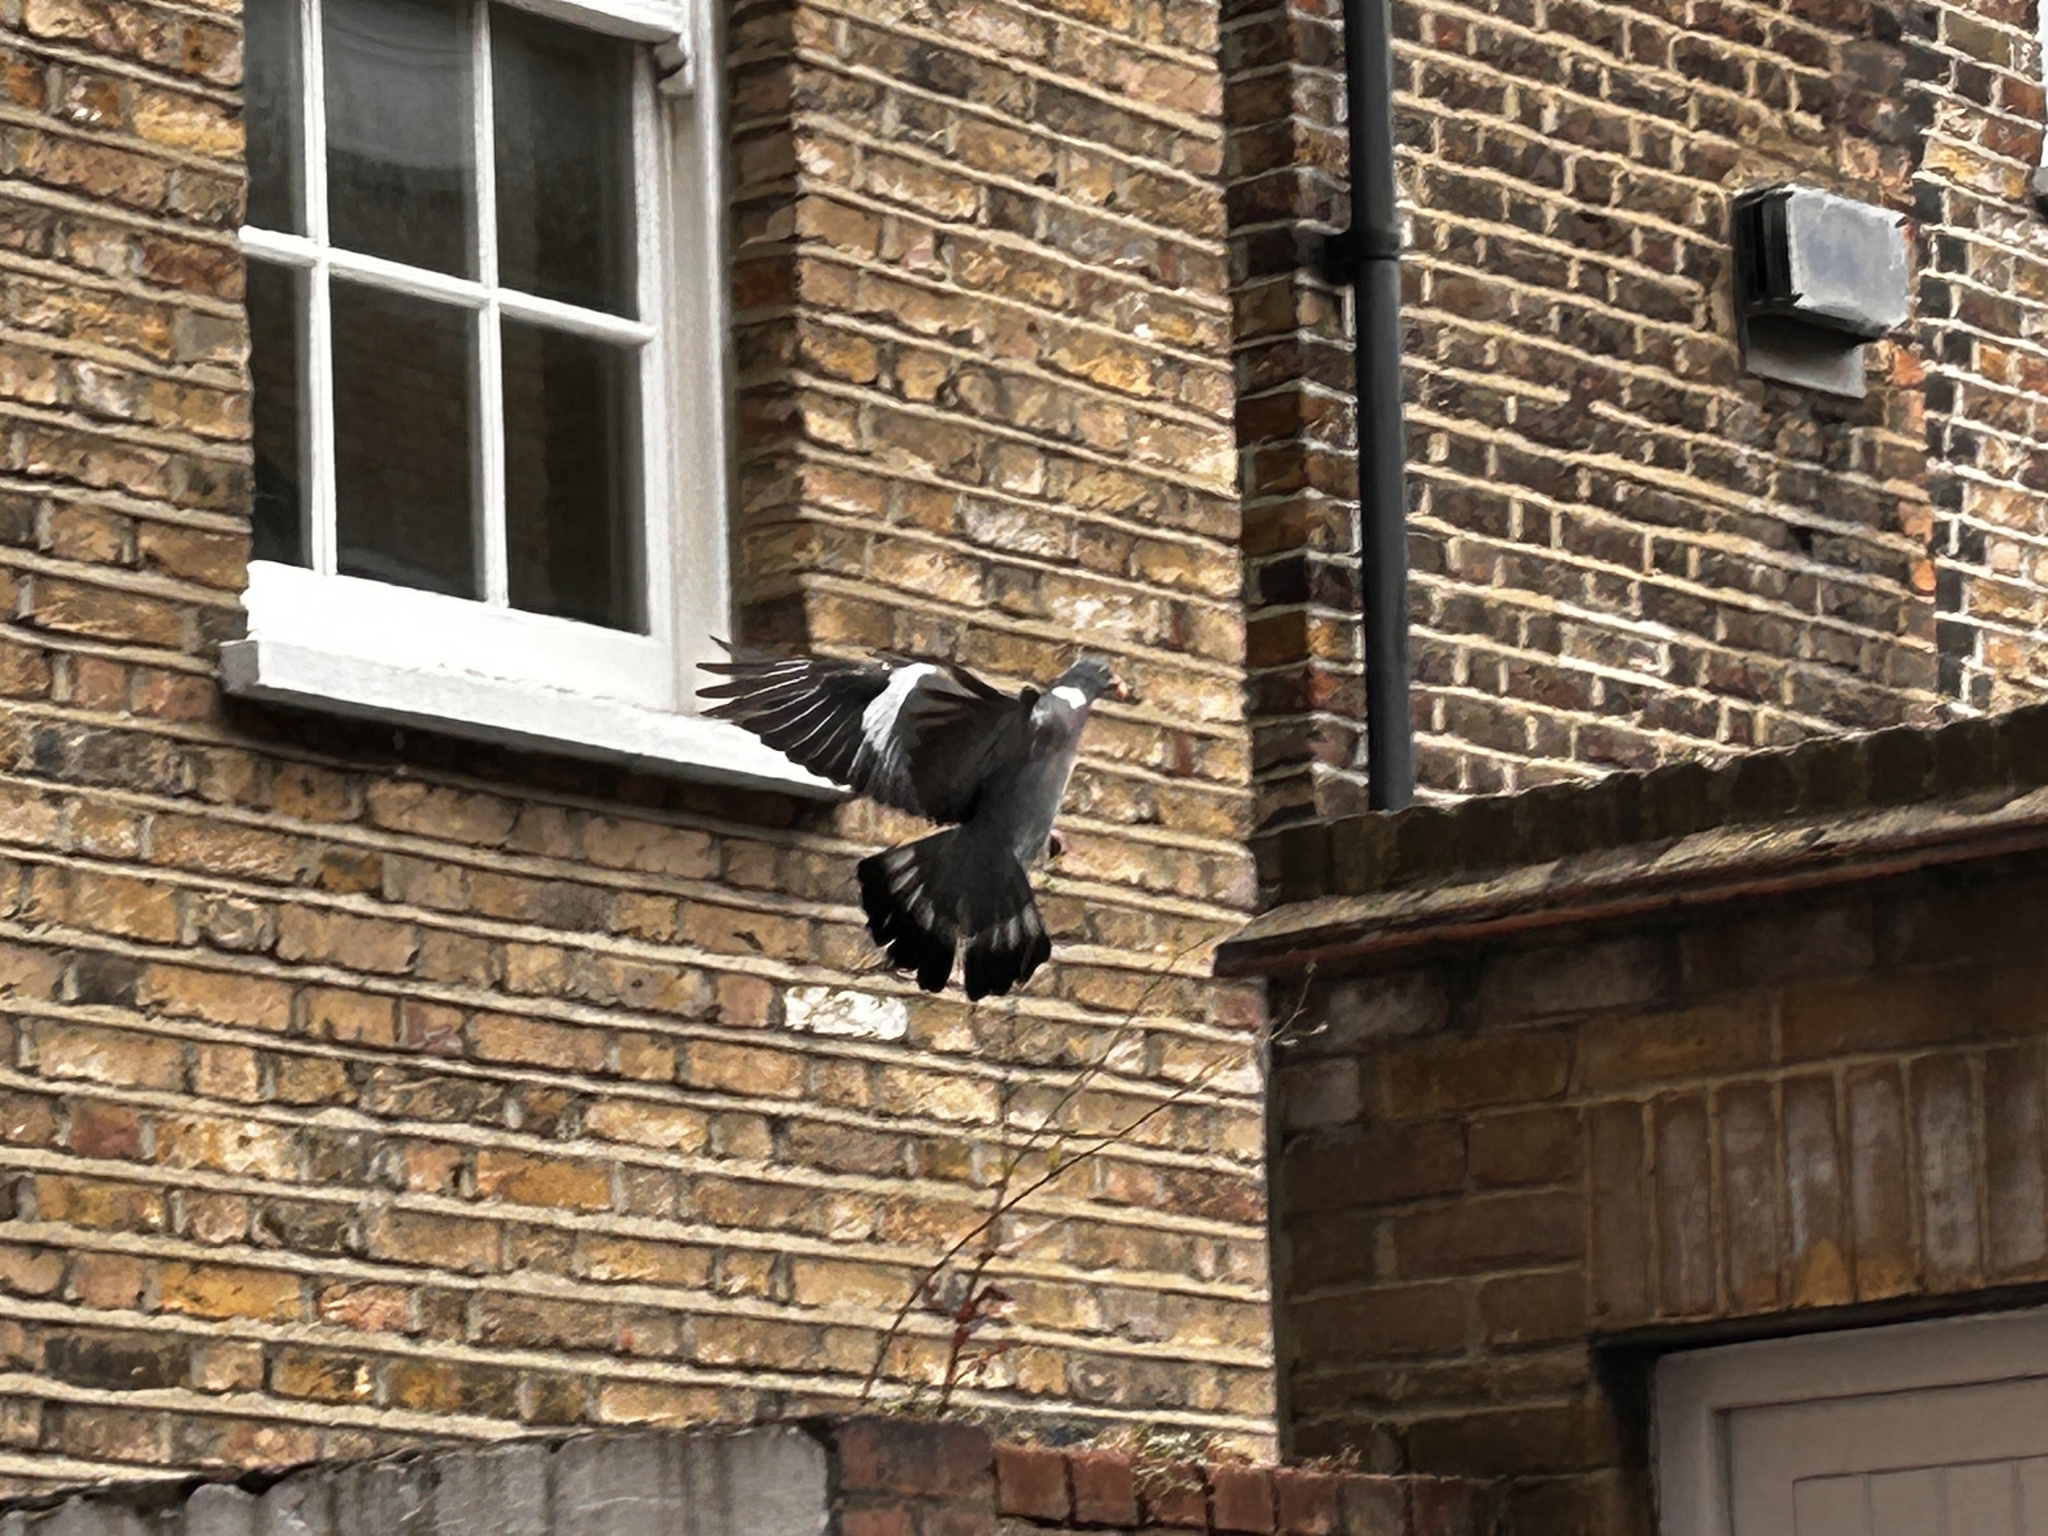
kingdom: Animalia
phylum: Chordata
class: Aves
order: Columbiformes
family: Columbidae
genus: Columba
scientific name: Columba palumbus
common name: Common wood pigeon
